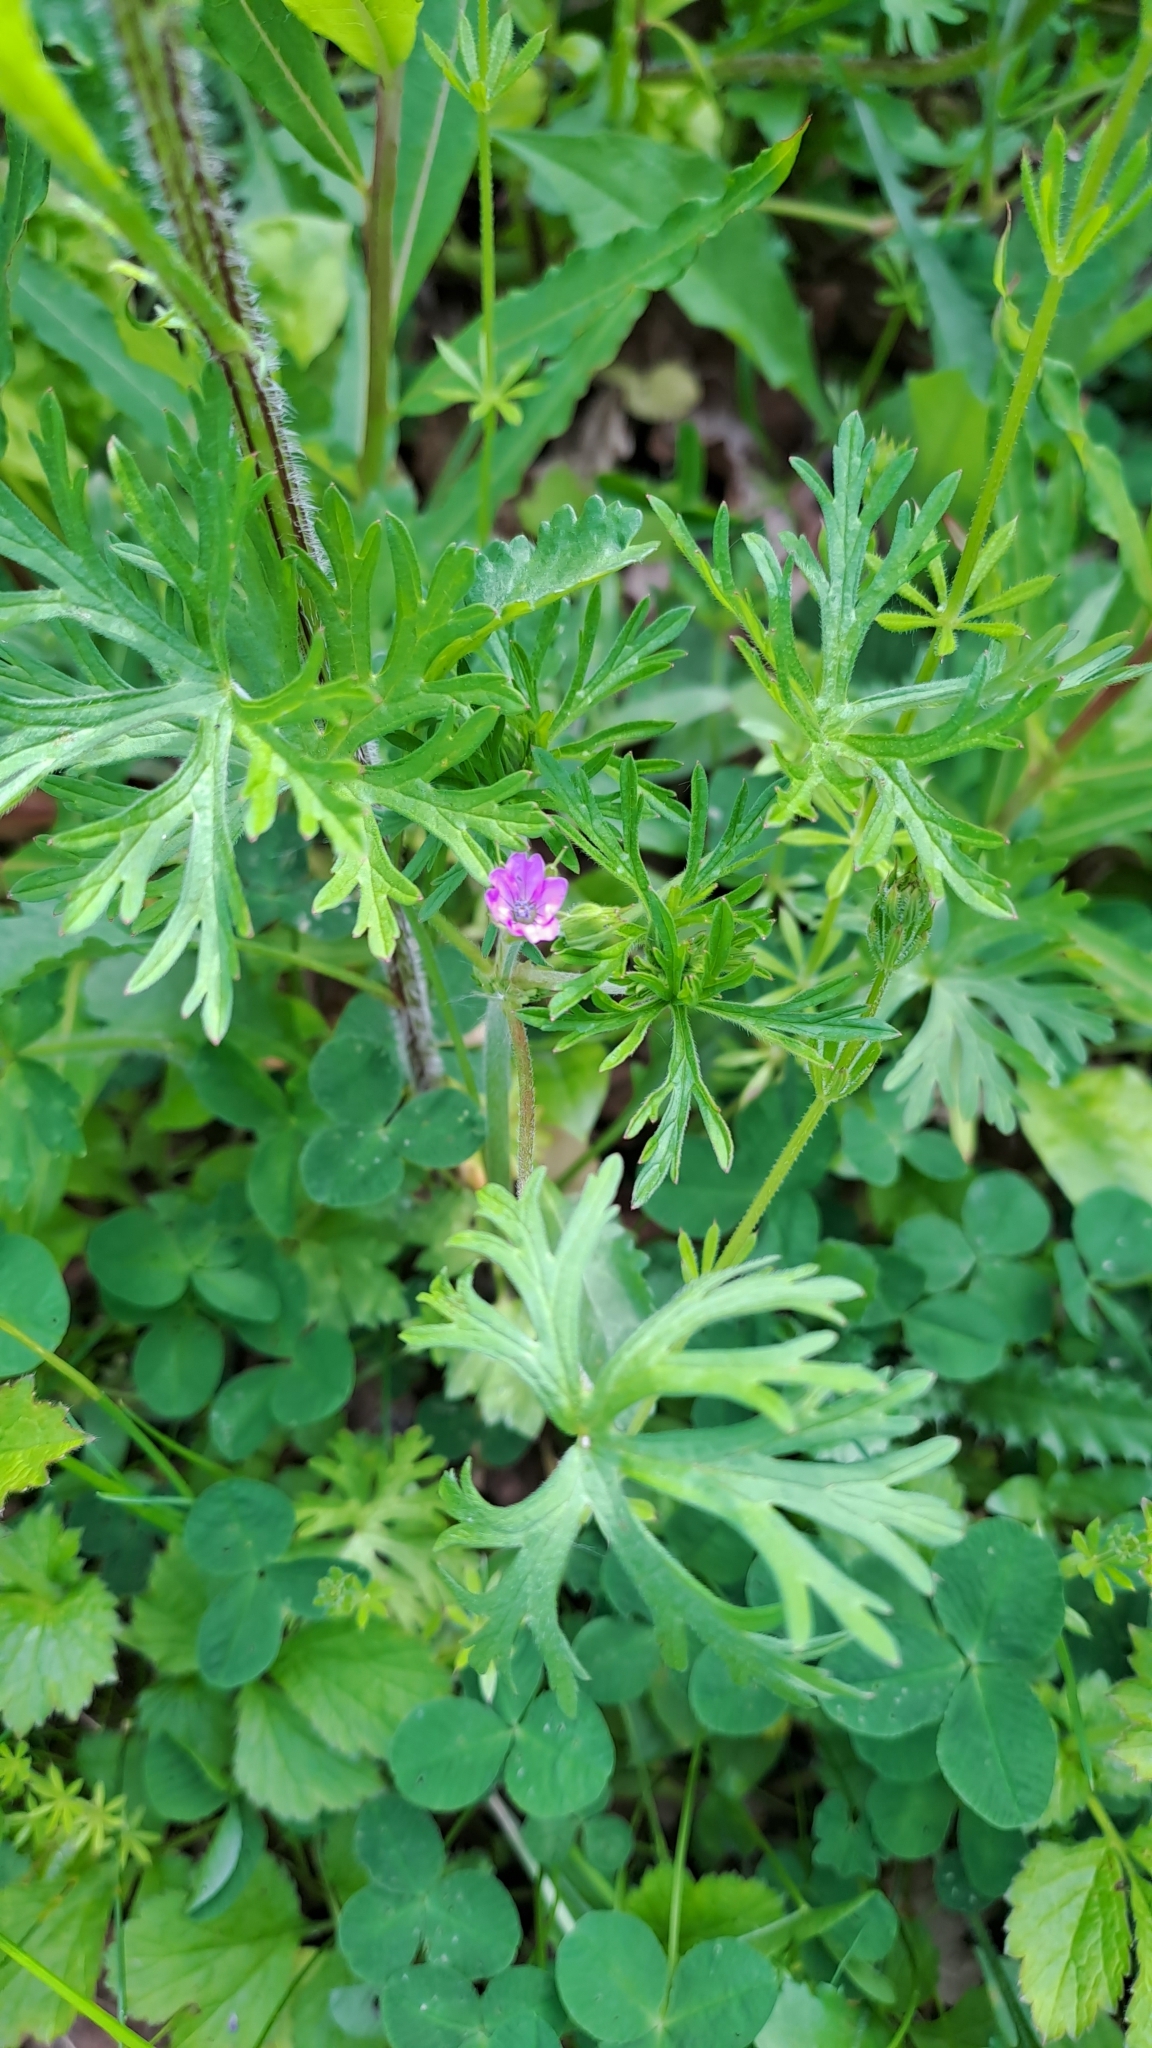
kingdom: Plantae
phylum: Tracheophyta
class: Magnoliopsida
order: Geraniales
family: Geraniaceae
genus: Geranium
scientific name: Geranium dissectum
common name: Cut-leaved crane's-bill
